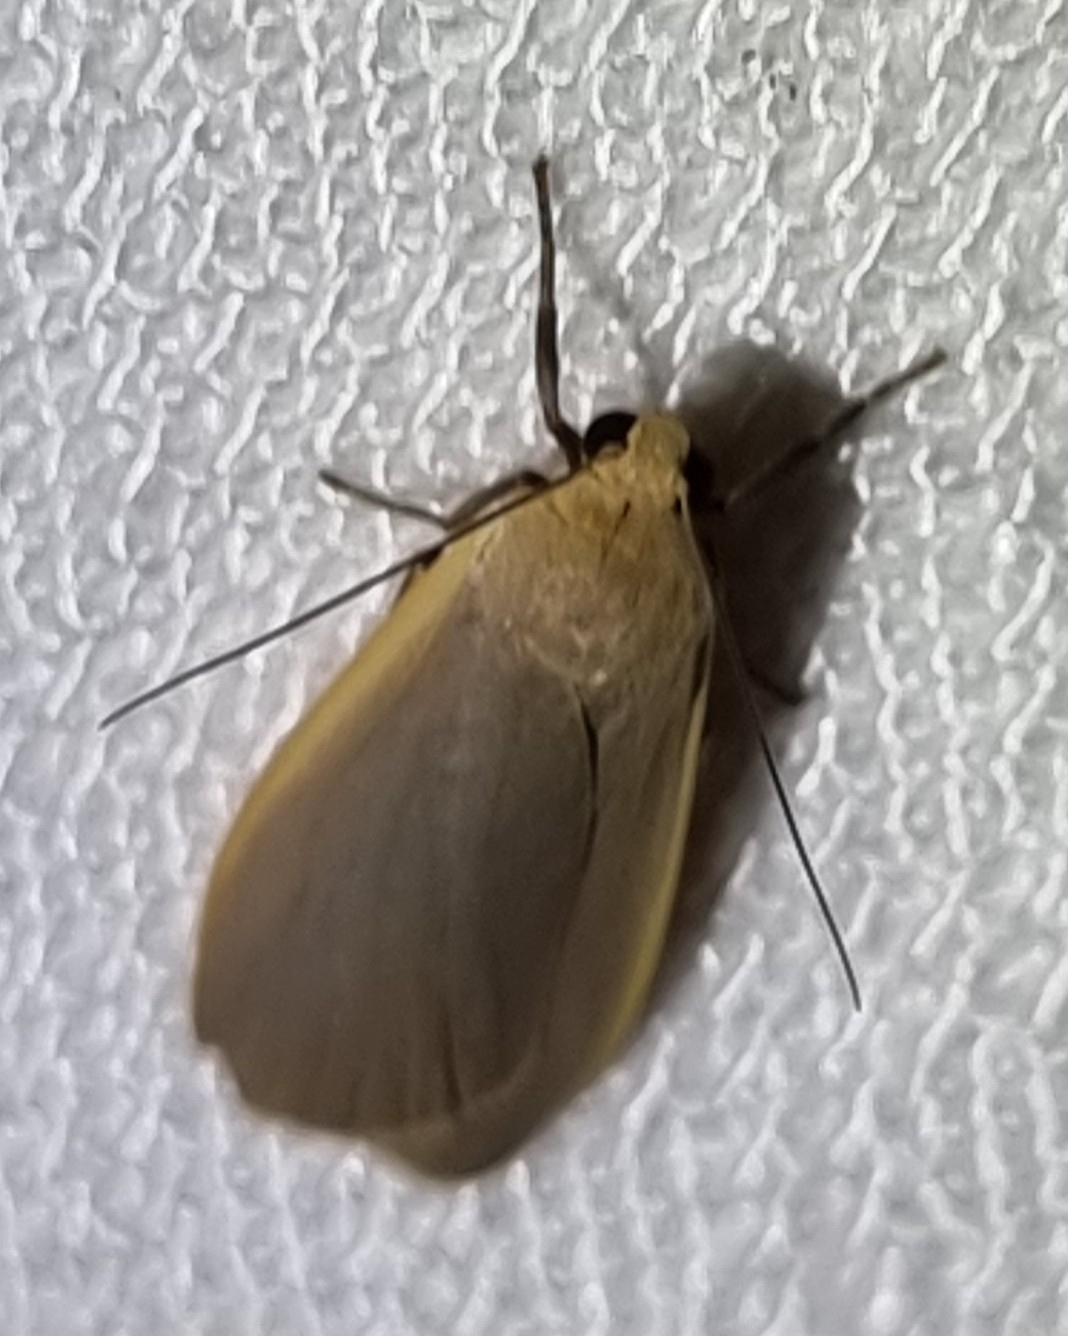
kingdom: Animalia
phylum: Arthropoda
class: Insecta
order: Lepidoptera
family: Erebidae
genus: Eilema
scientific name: Eilema plana
